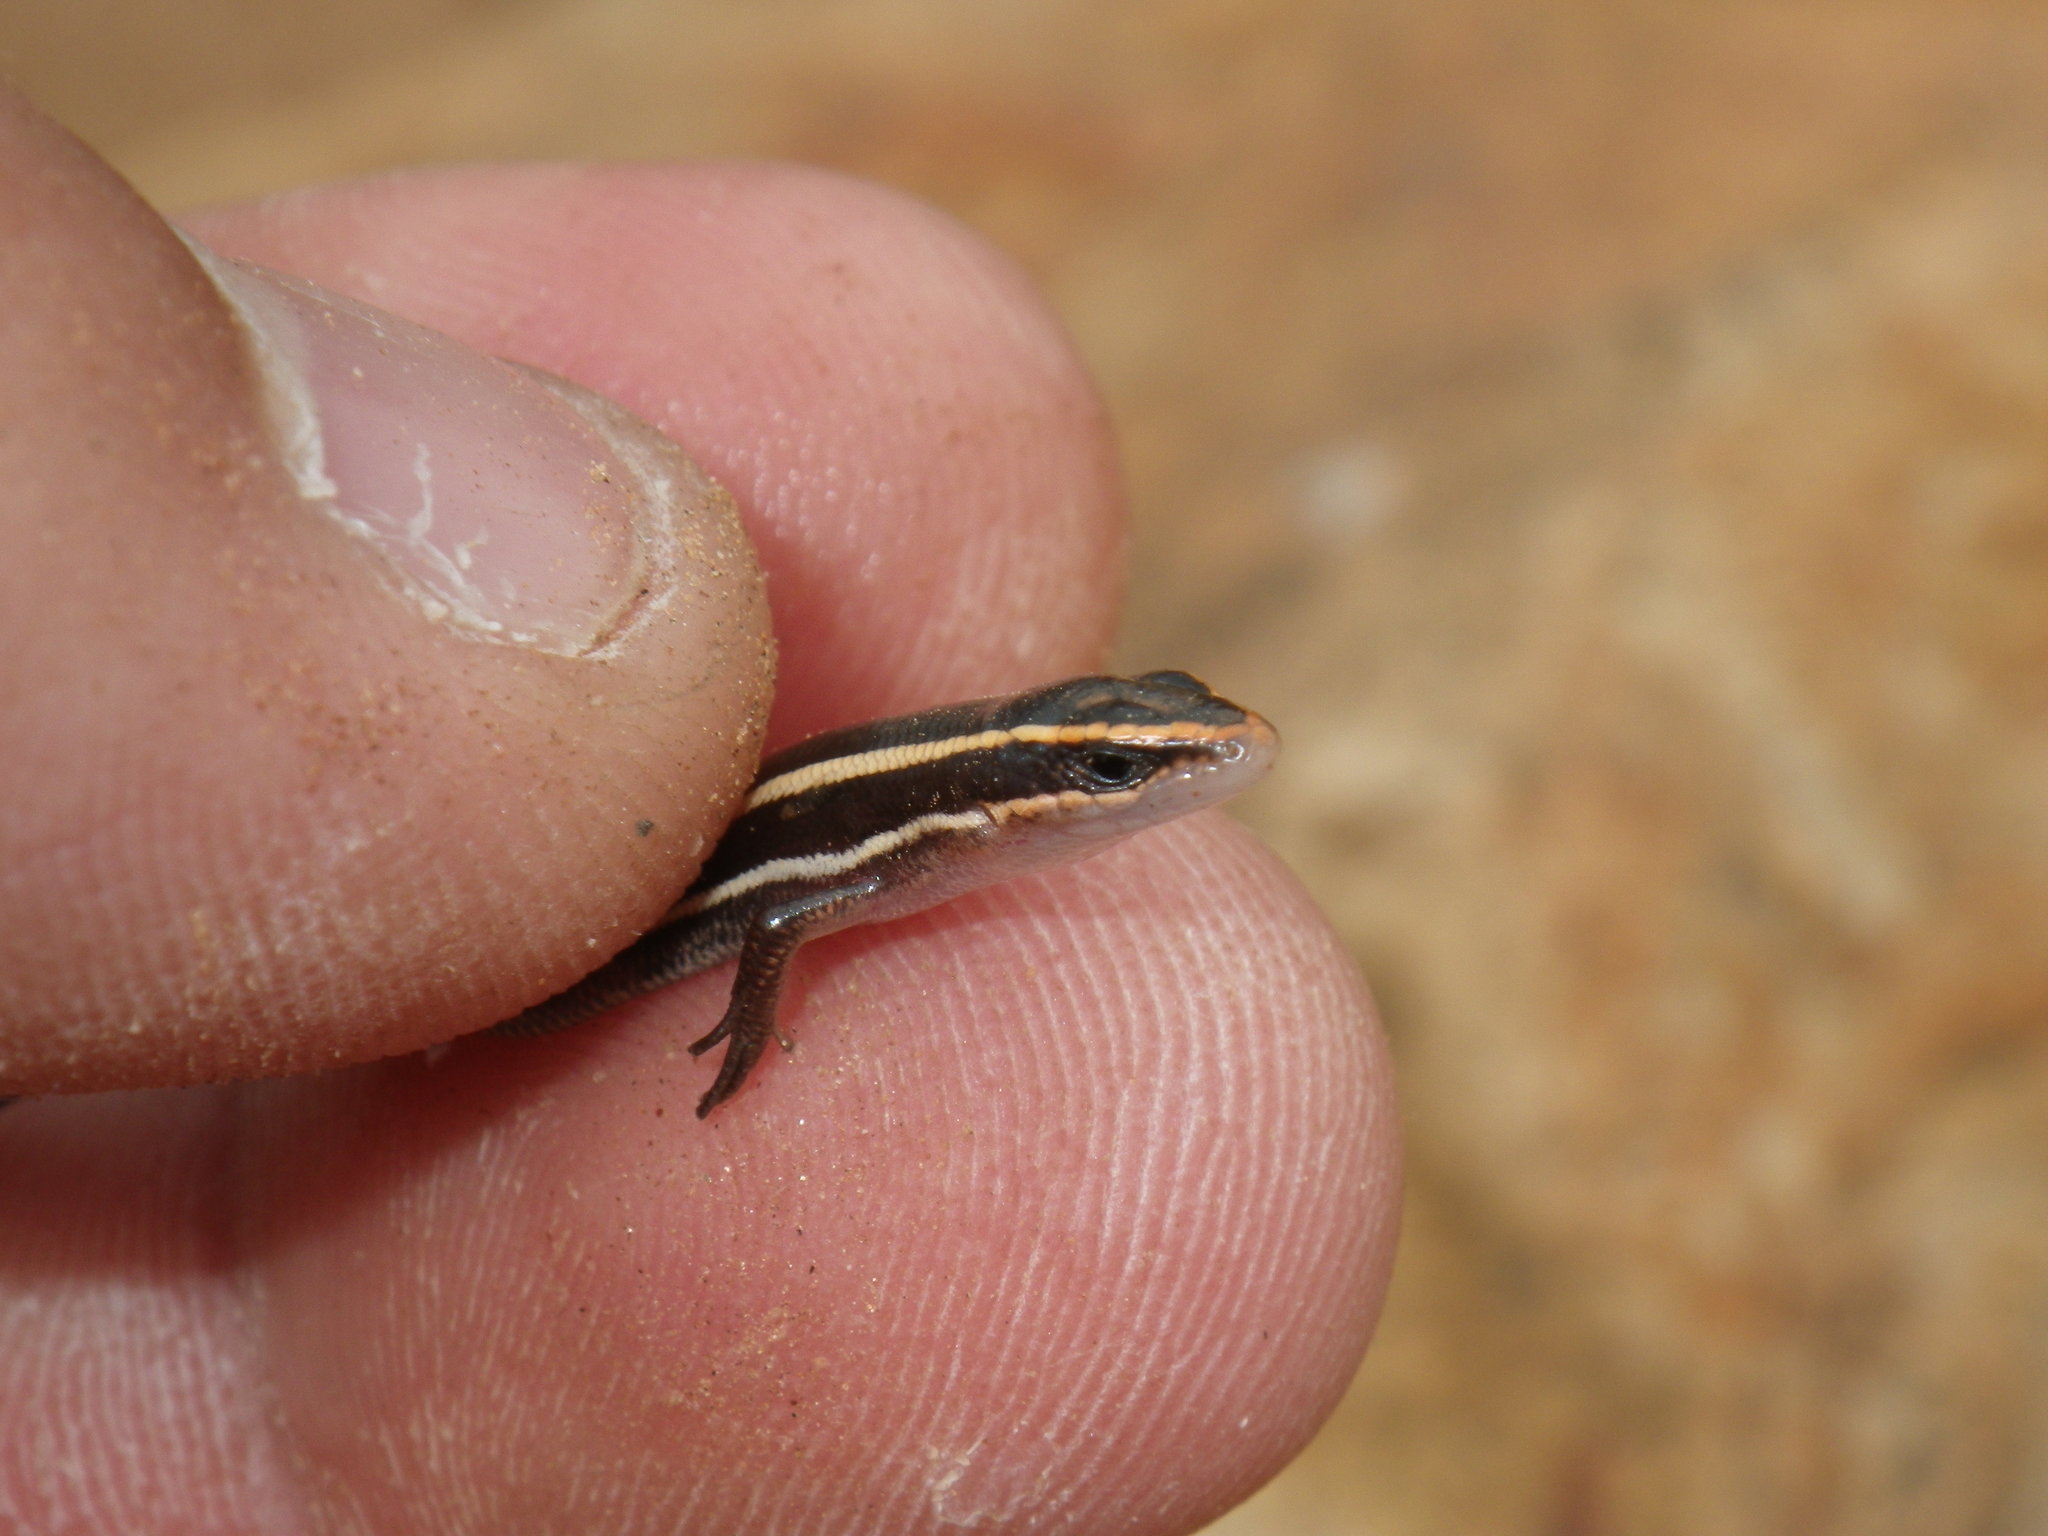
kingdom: Animalia
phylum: Chordata
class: Squamata
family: Scincidae
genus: Plestiodon
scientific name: Plestiodon skiltonianus
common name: Coronado island skink [interparietalis]
